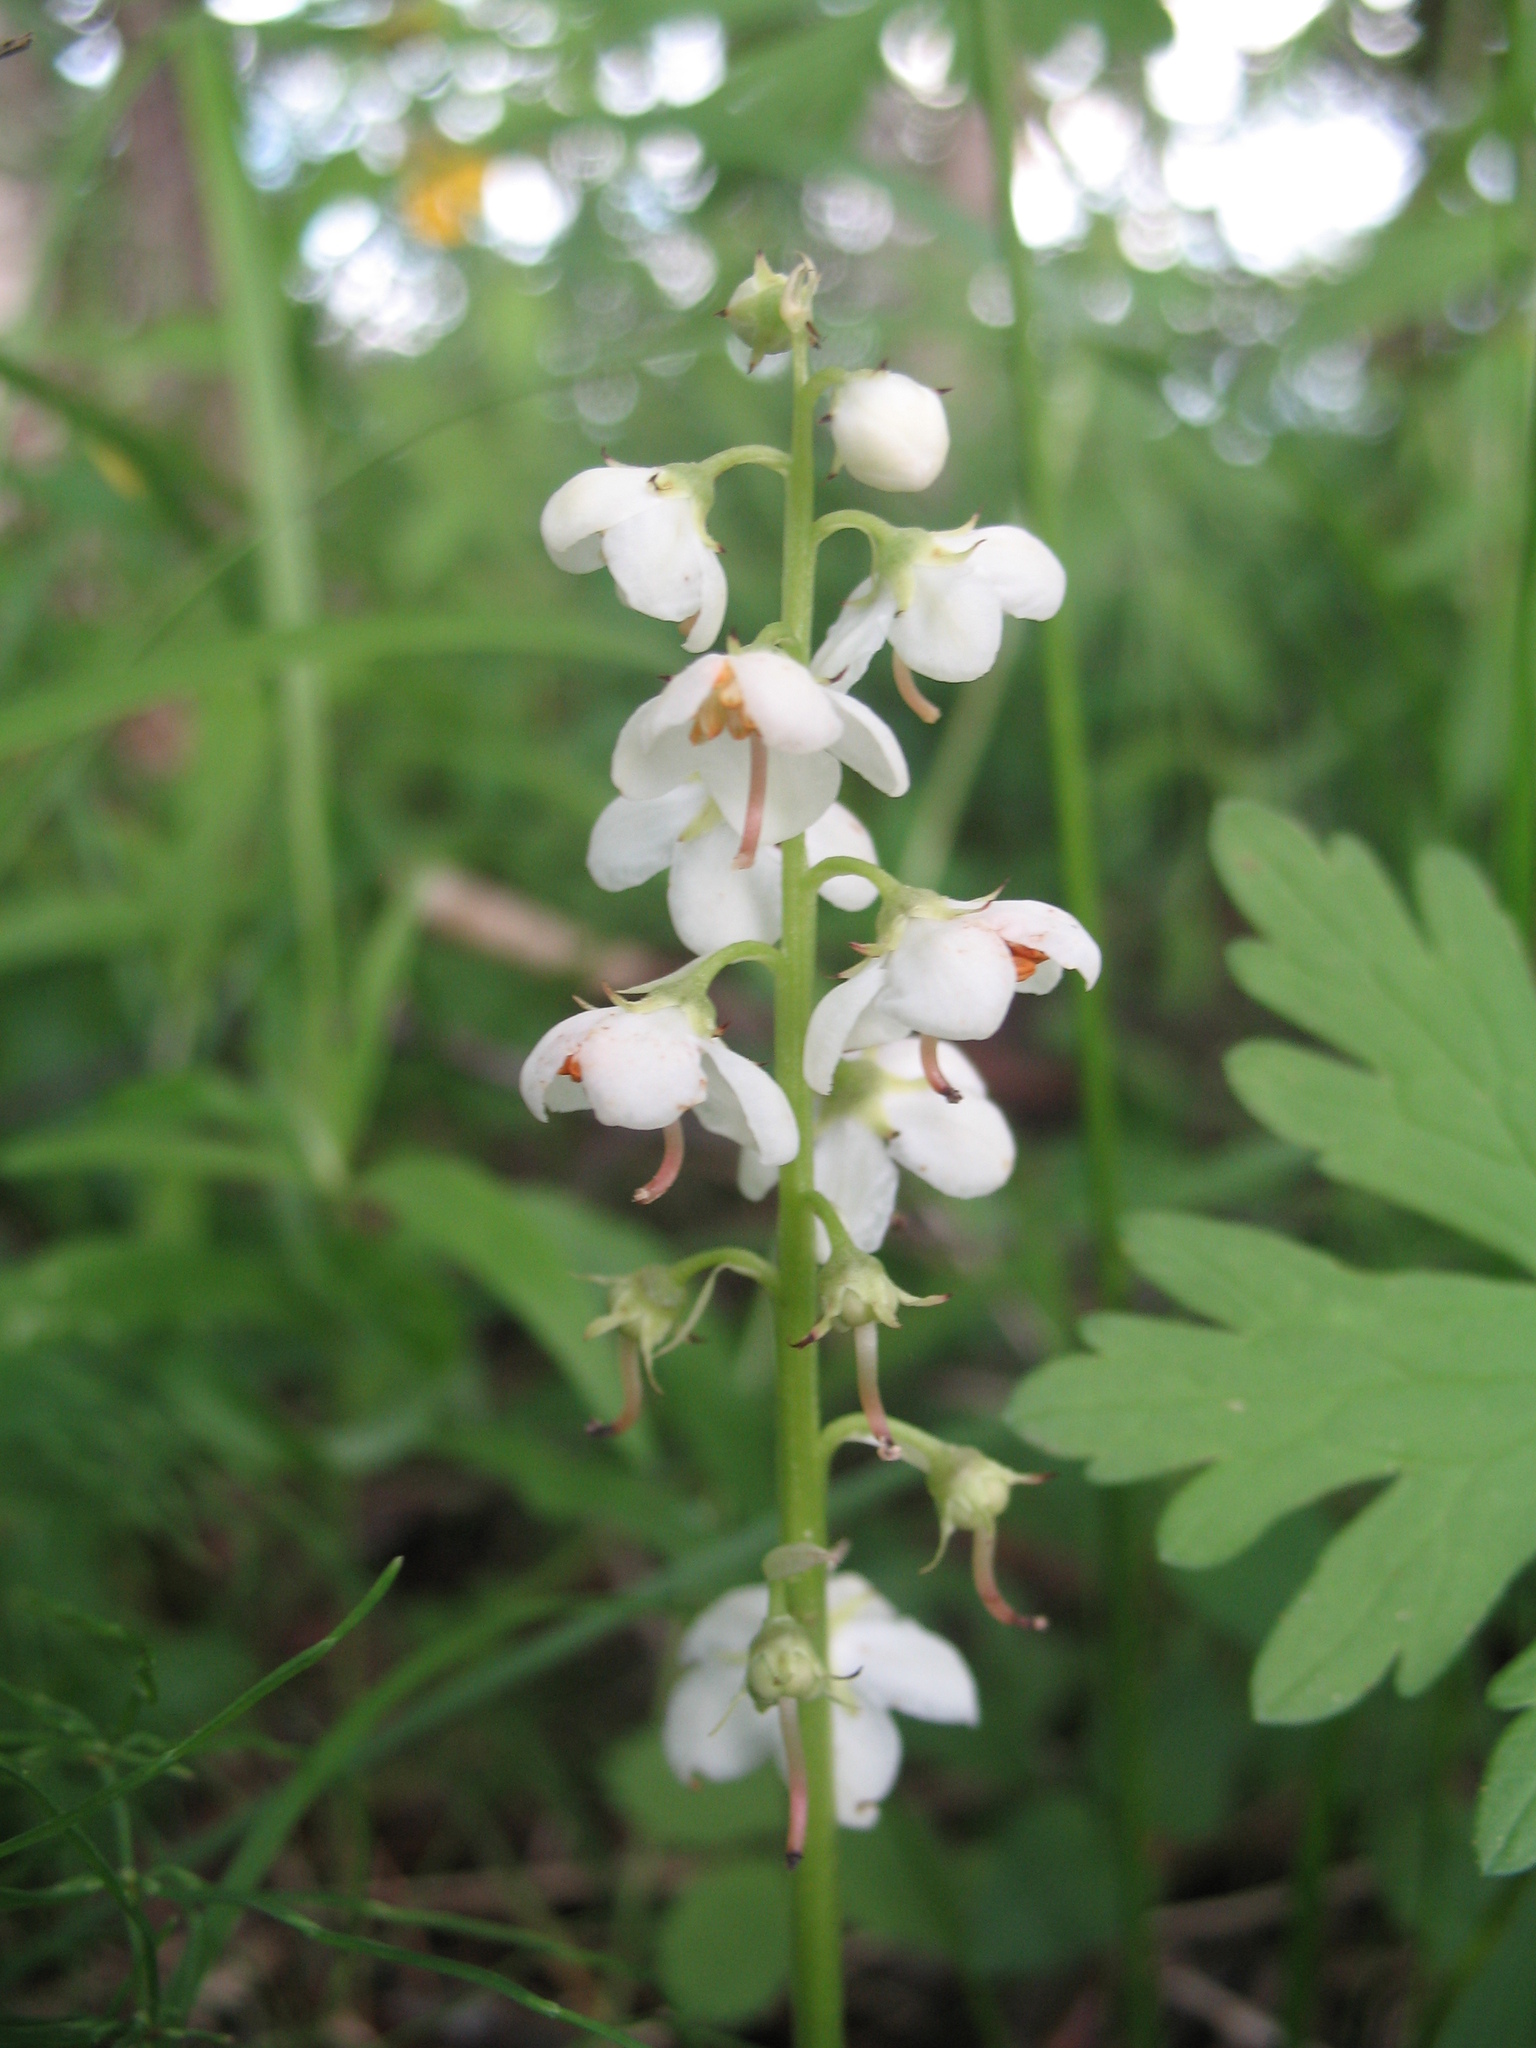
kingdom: Plantae
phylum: Tracheophyta
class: Magnoliopsida
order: Ericales
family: Ericaceae
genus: Pyrola
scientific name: Pyrola rotundifolia
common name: Round-leaved wintergreen
